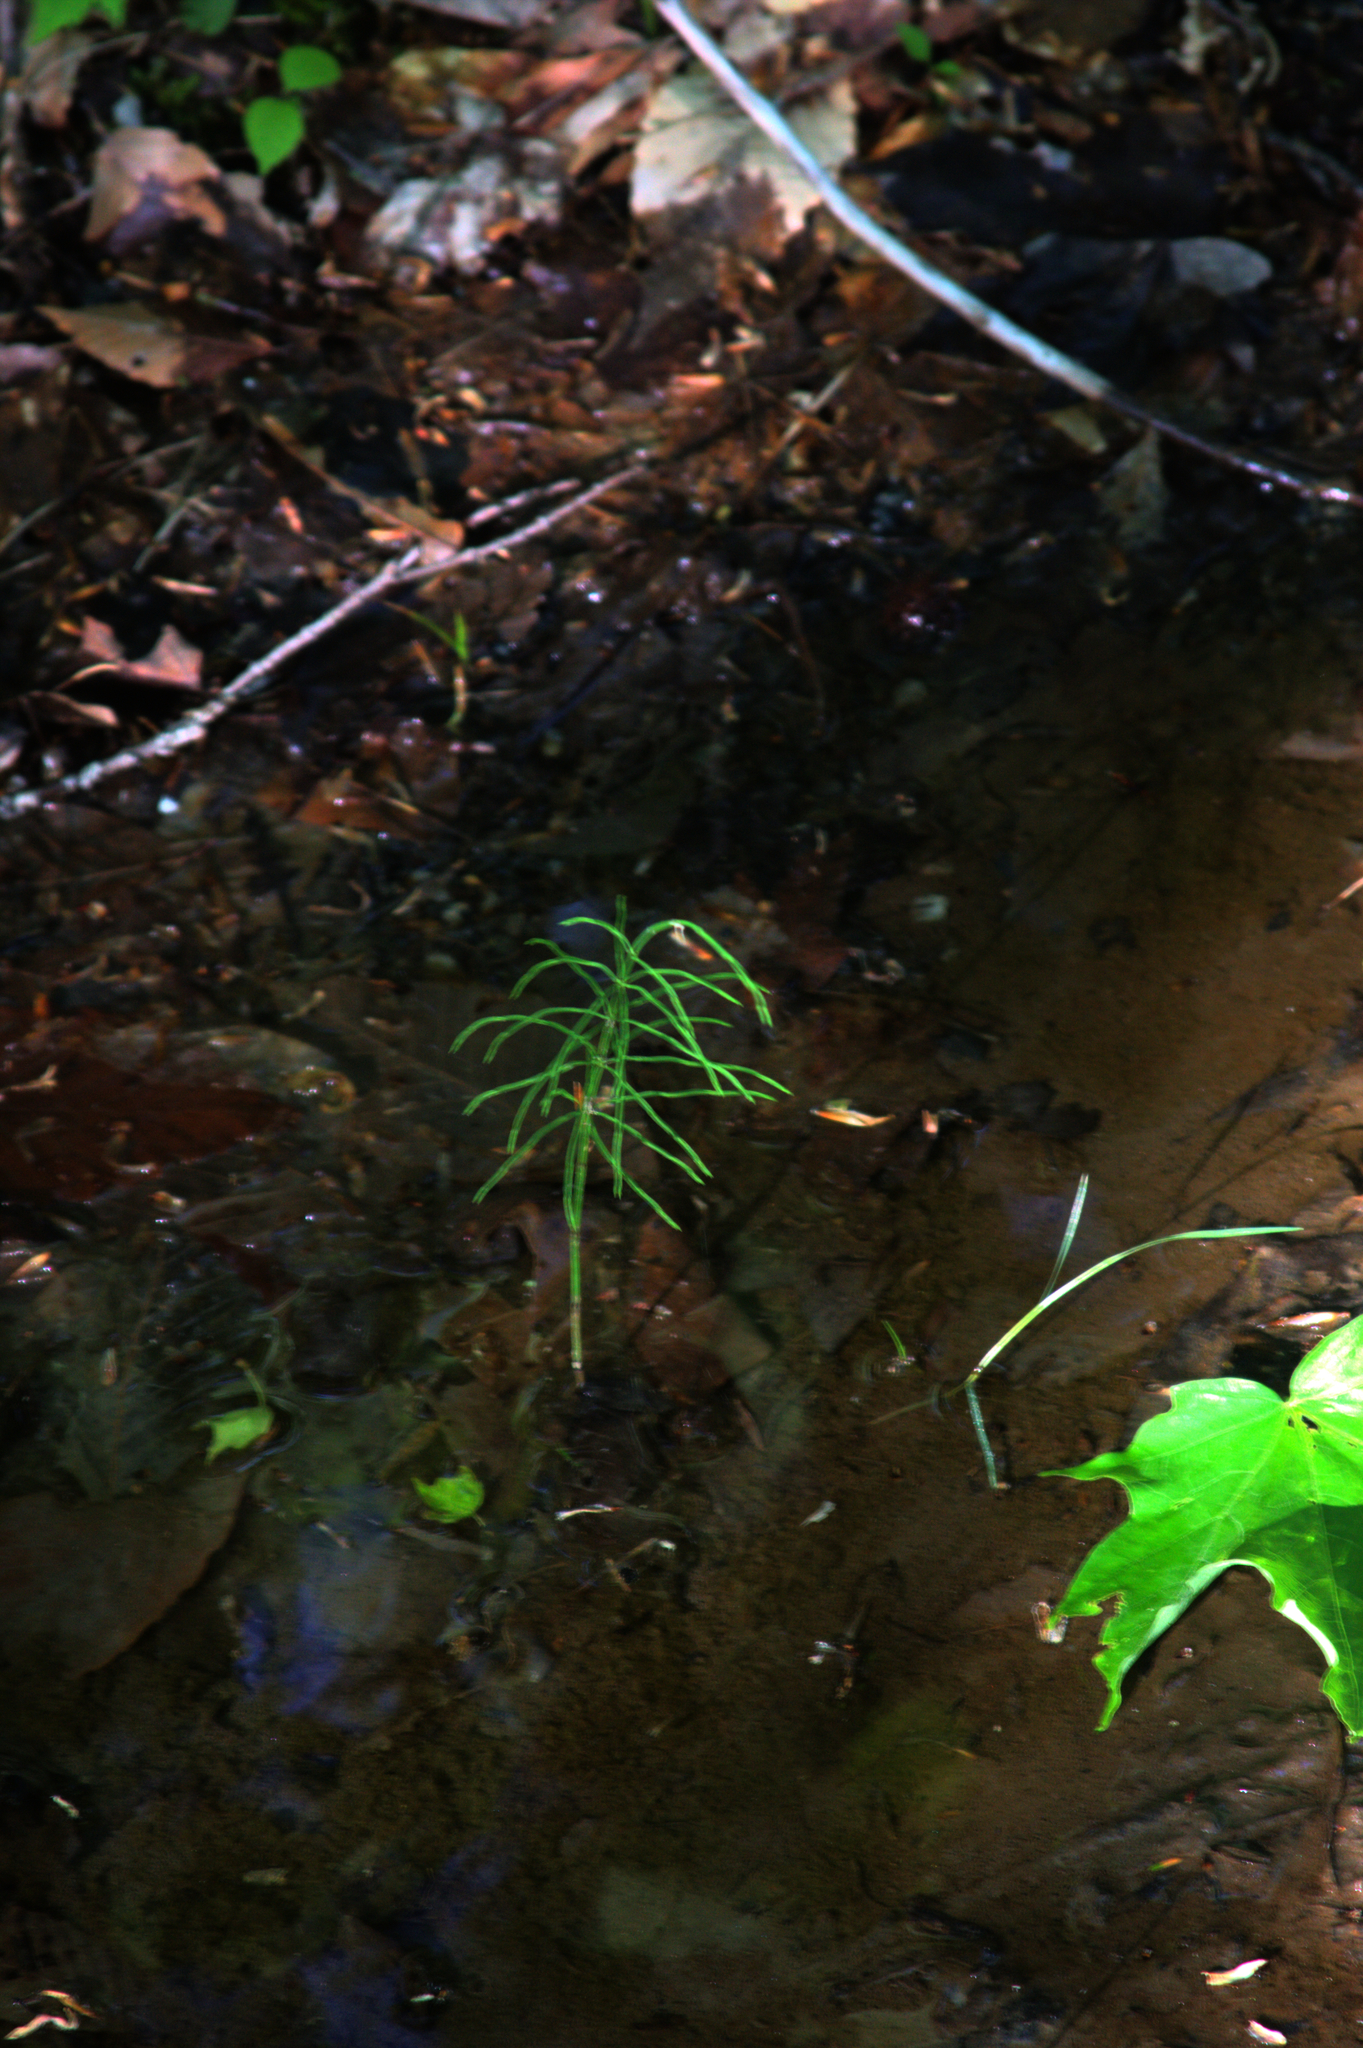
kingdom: Plantae
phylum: Tracheophyta
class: Polypodiopsida
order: Equisetales
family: Equisetaceae
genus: Equisetum
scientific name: Equisetum arvense
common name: Field horsetail
